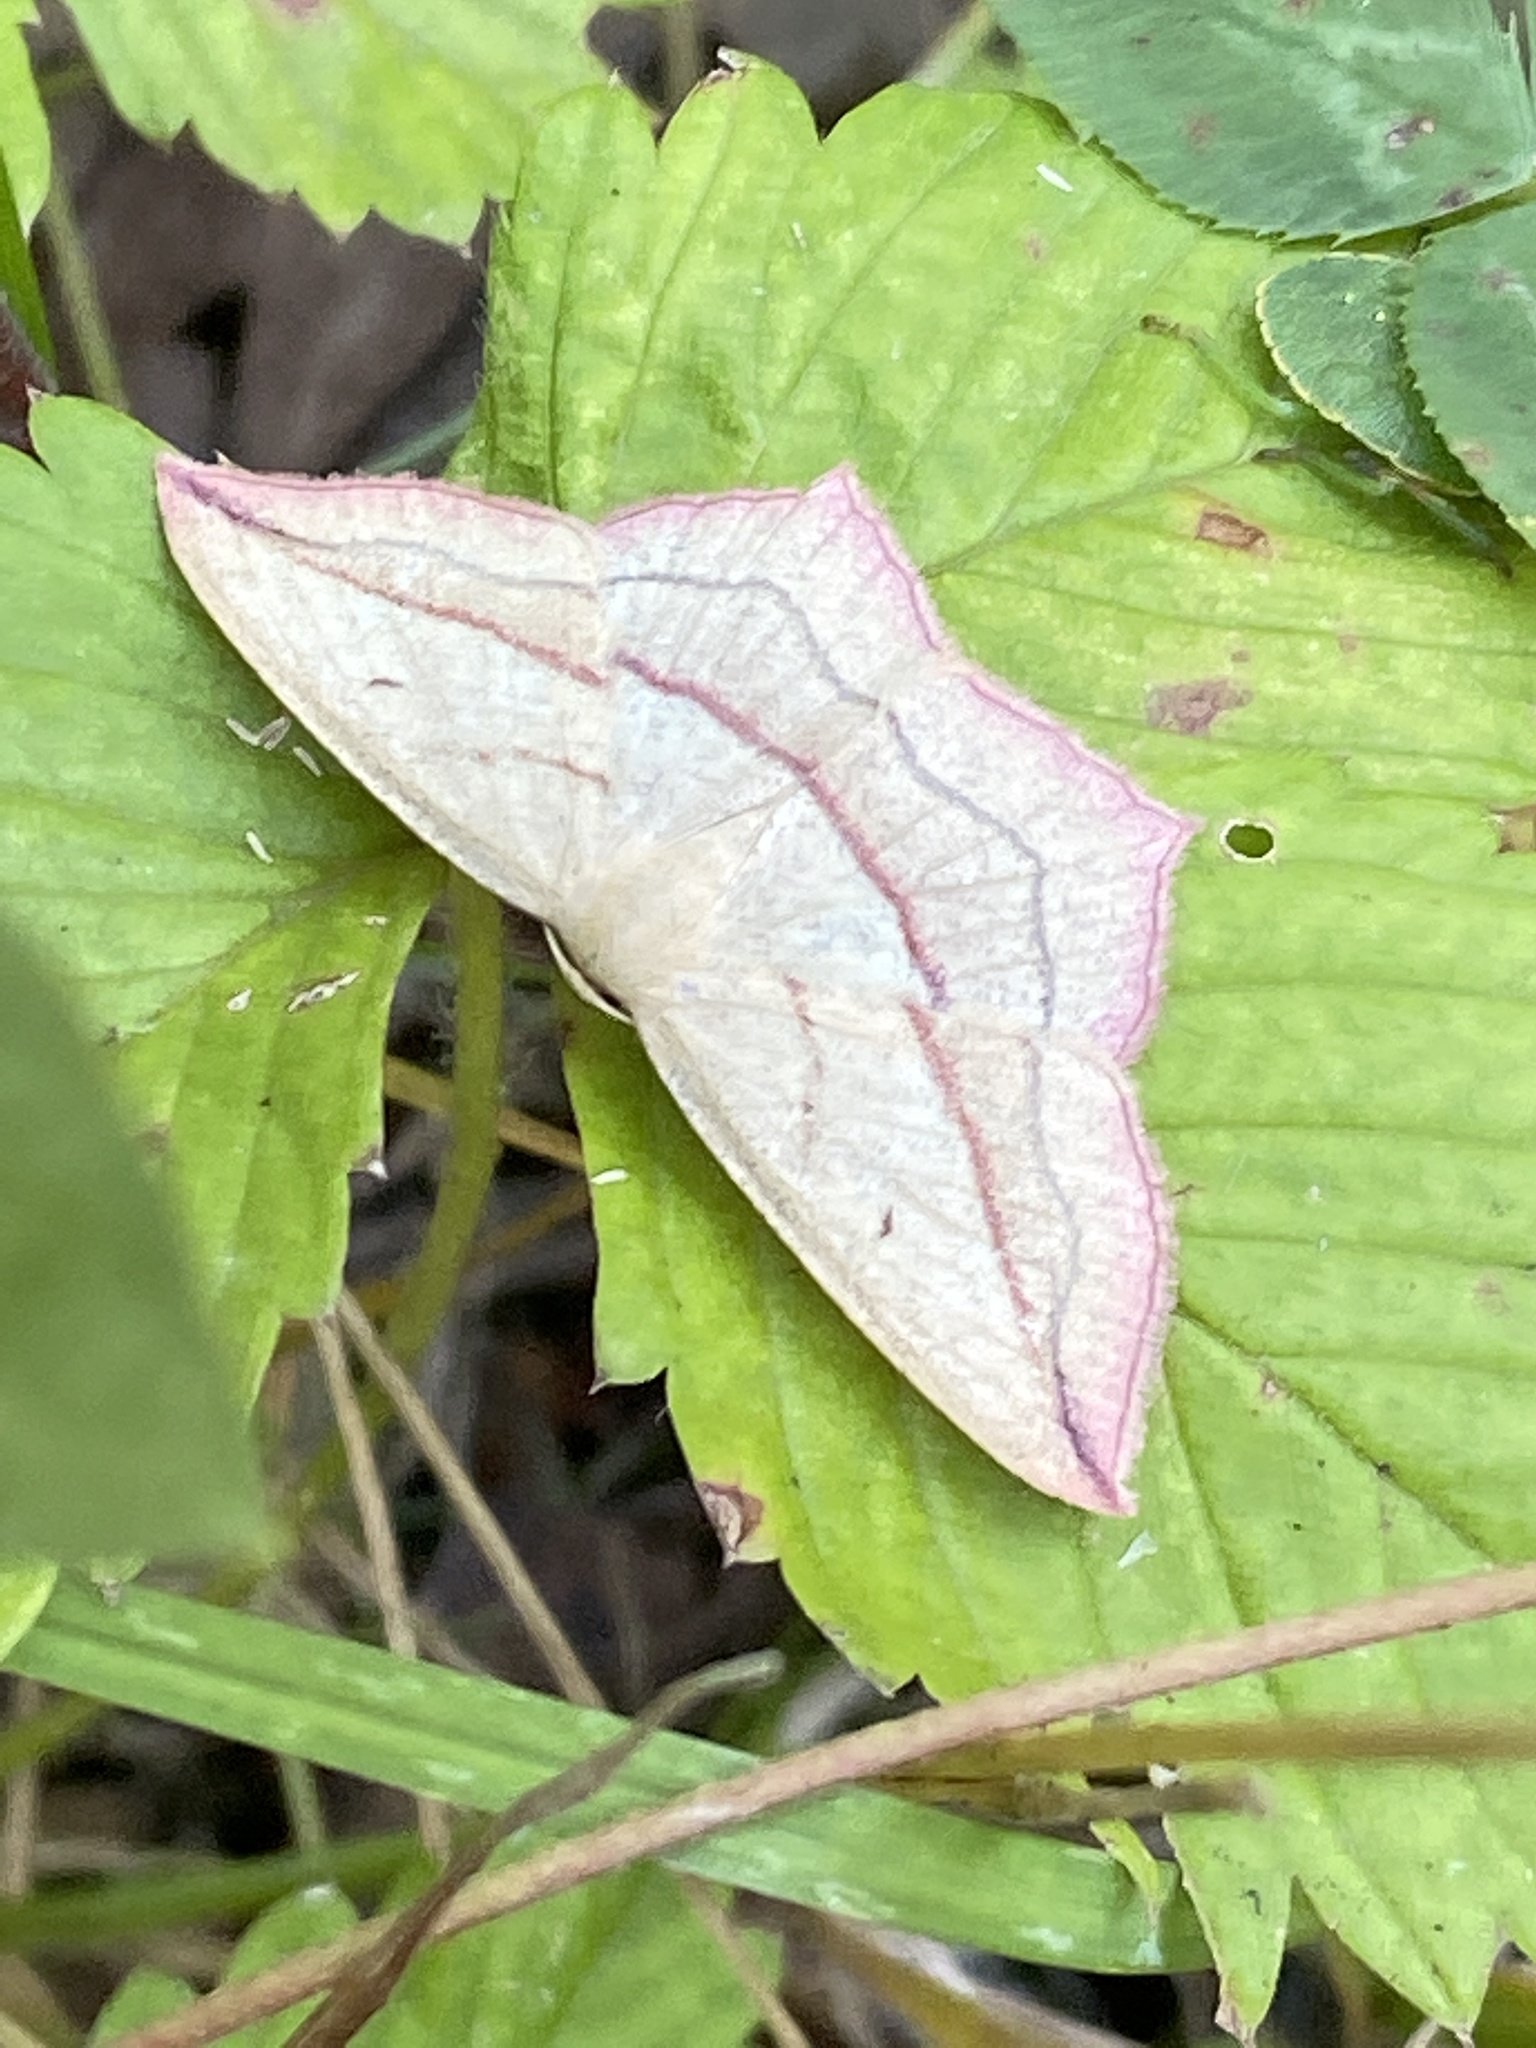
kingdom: Animalia
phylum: Arthropoda
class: Insecta
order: Lepidoptera
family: Geometridae
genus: Timandra
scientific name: Timandra comae
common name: Blood-vein
